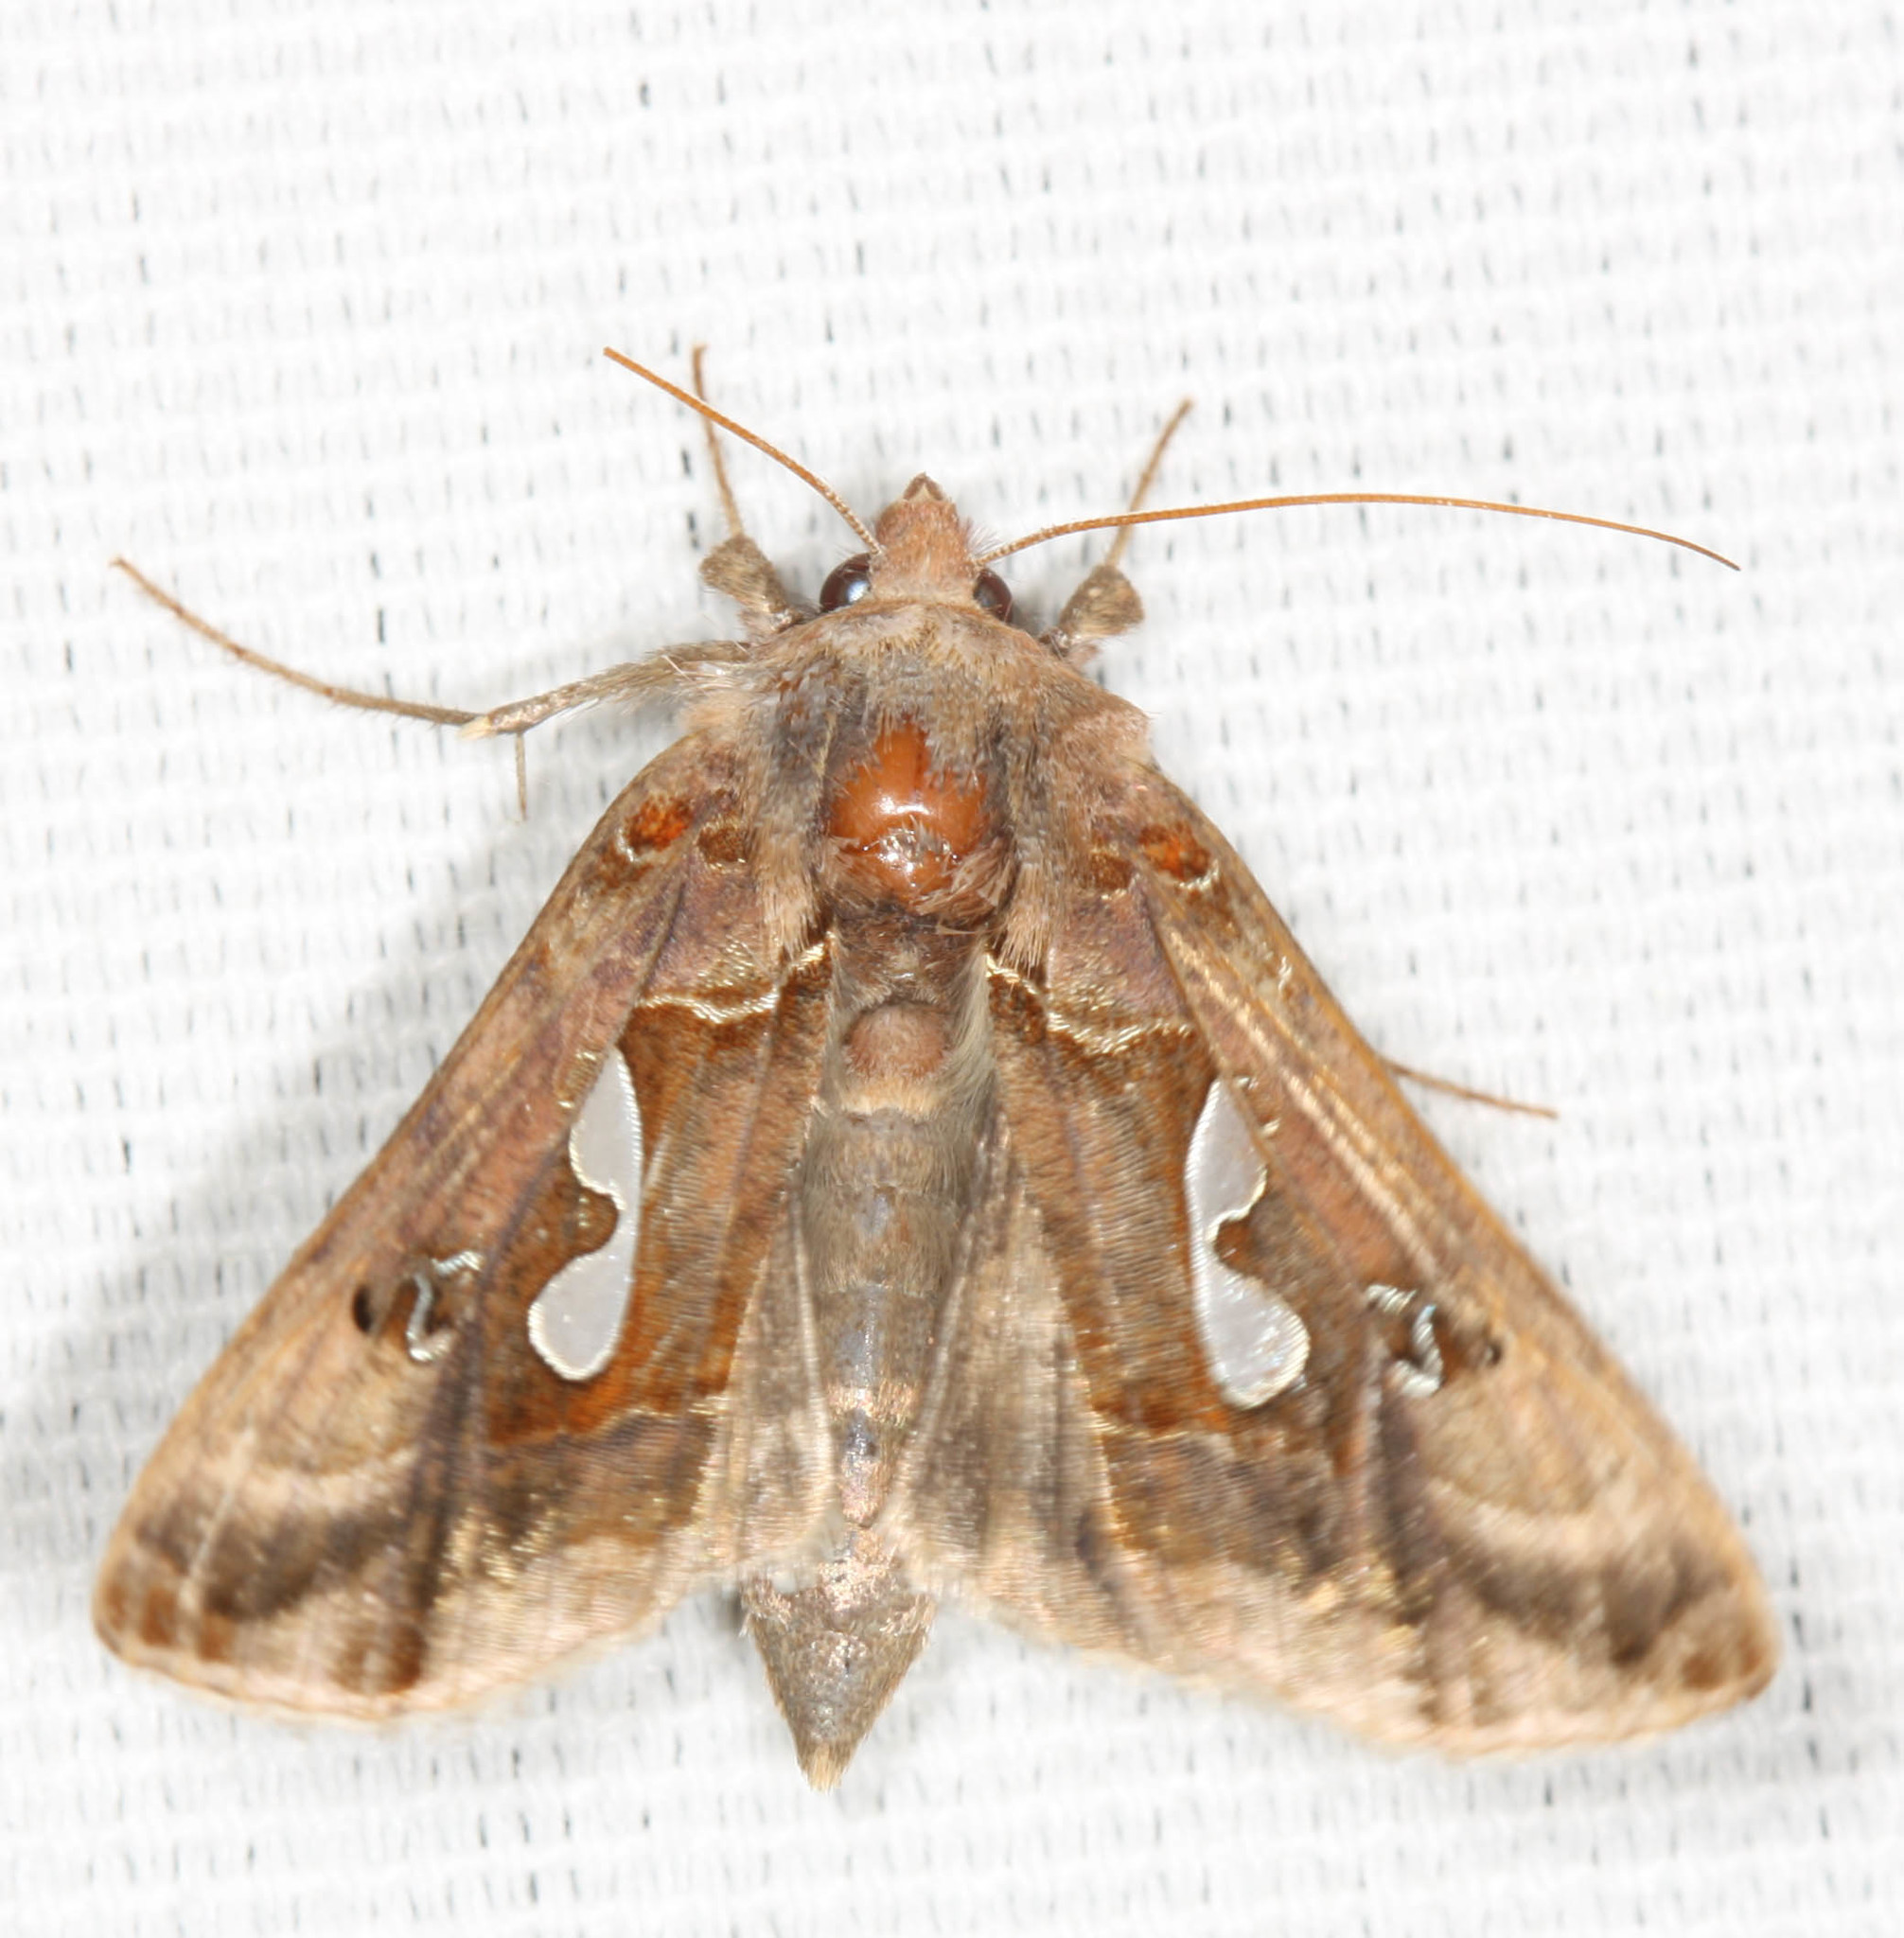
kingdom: Animalia
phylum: Arthropoda
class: Insecta
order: Lepidoptera
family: Noctuidae
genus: Megalographa
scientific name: Megalographa biloba
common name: Cutworm
